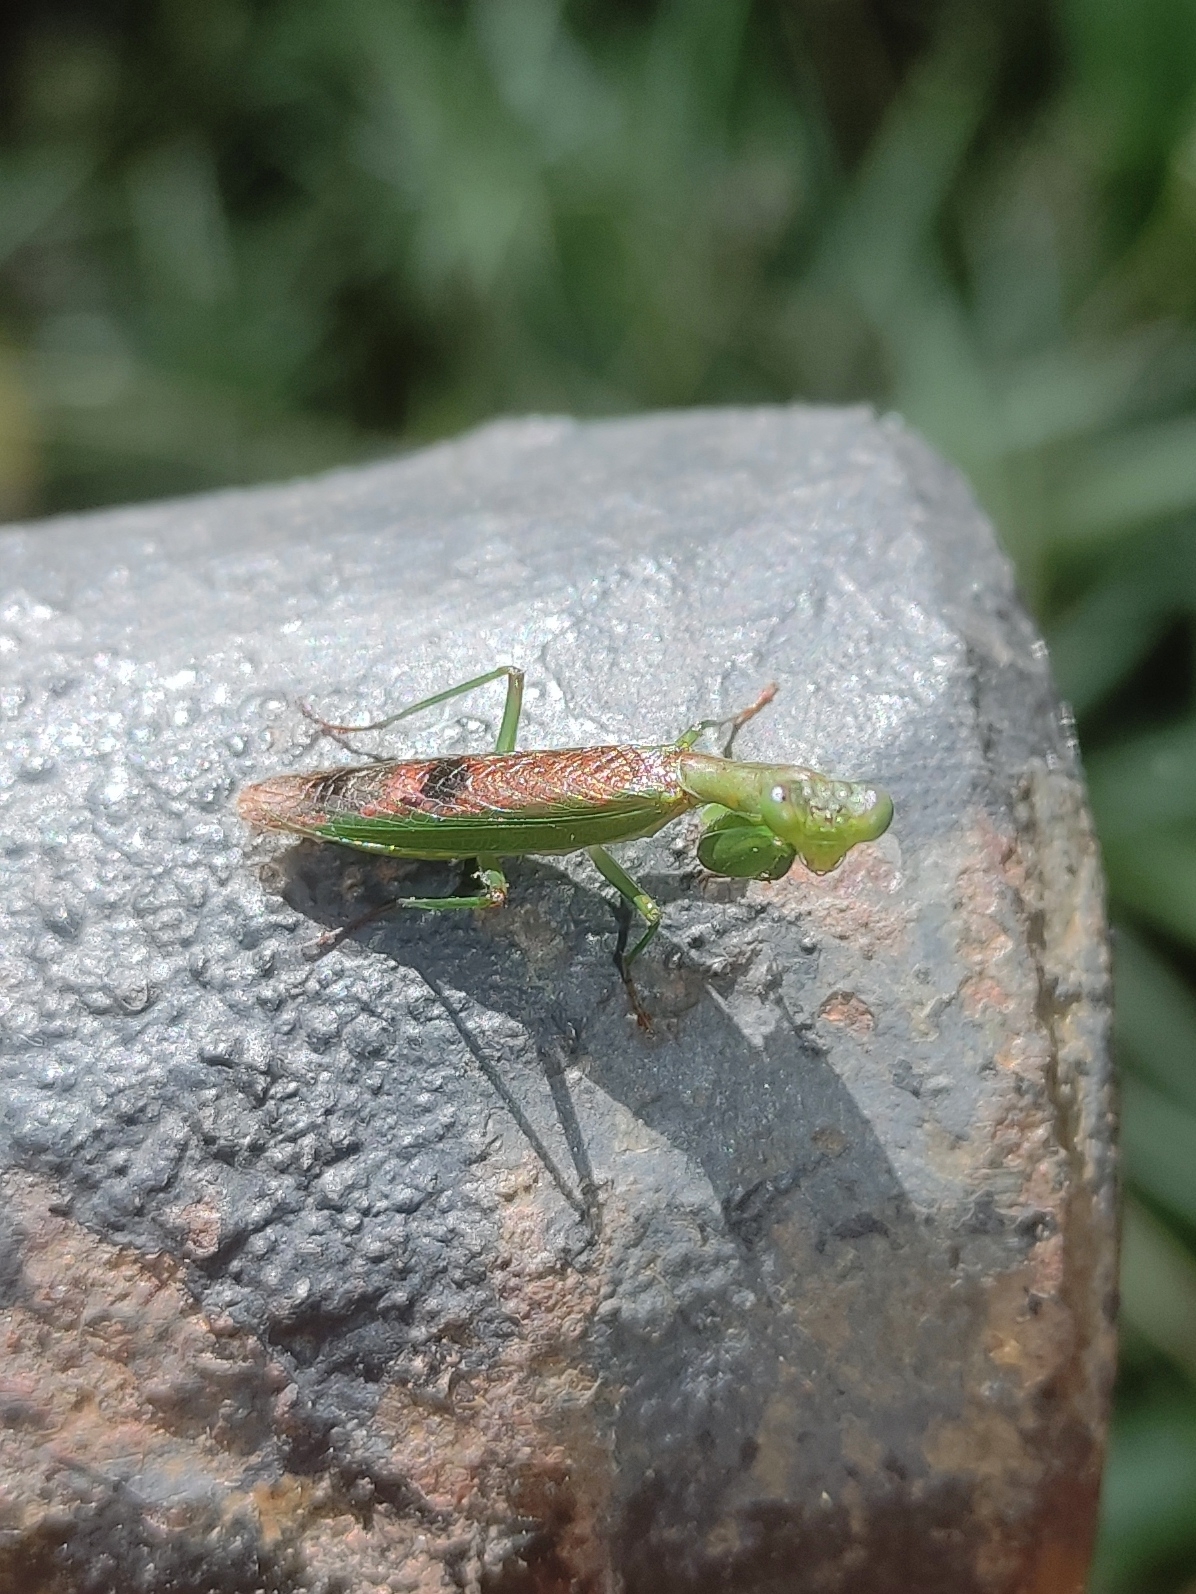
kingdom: Animalia
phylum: Arthropoda
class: Insecta
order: Mantodea
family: Acanthopidae
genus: Acontista
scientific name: Acontista concinna
